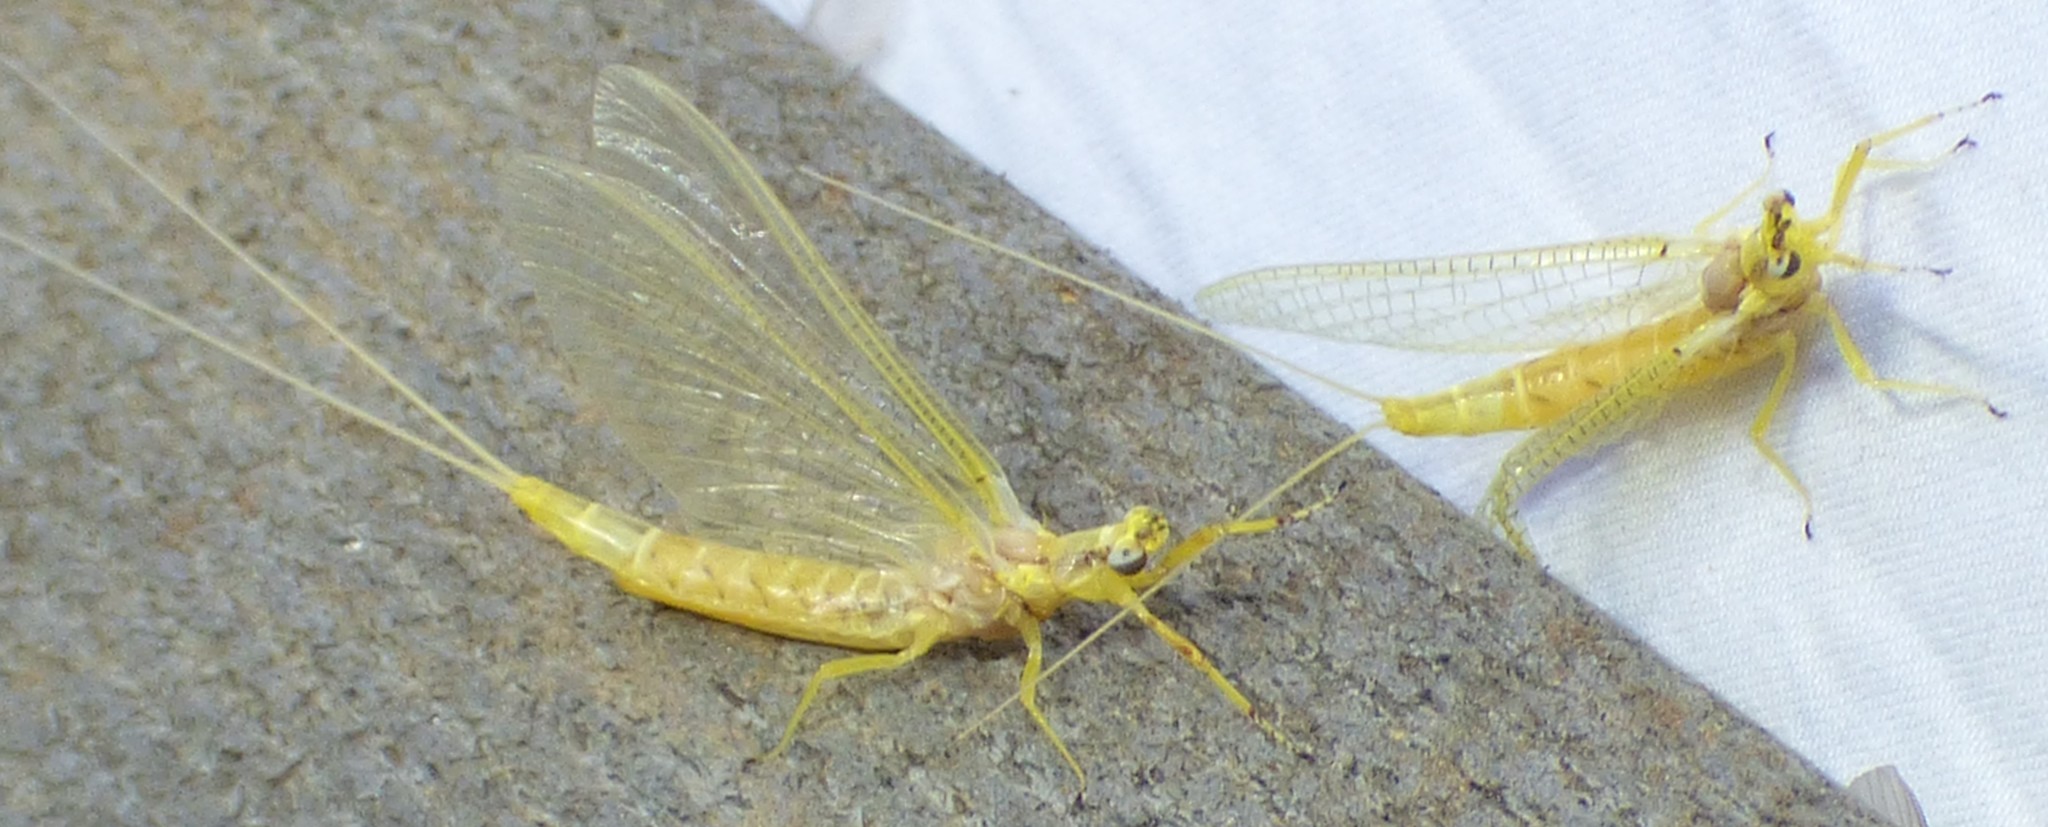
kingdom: Animalia
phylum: Arthropoda
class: Insecta
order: Ephemeroptera
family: Ephemeridae
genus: Hexagenia
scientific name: Hexagenia limbata
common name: Giant mayfly
